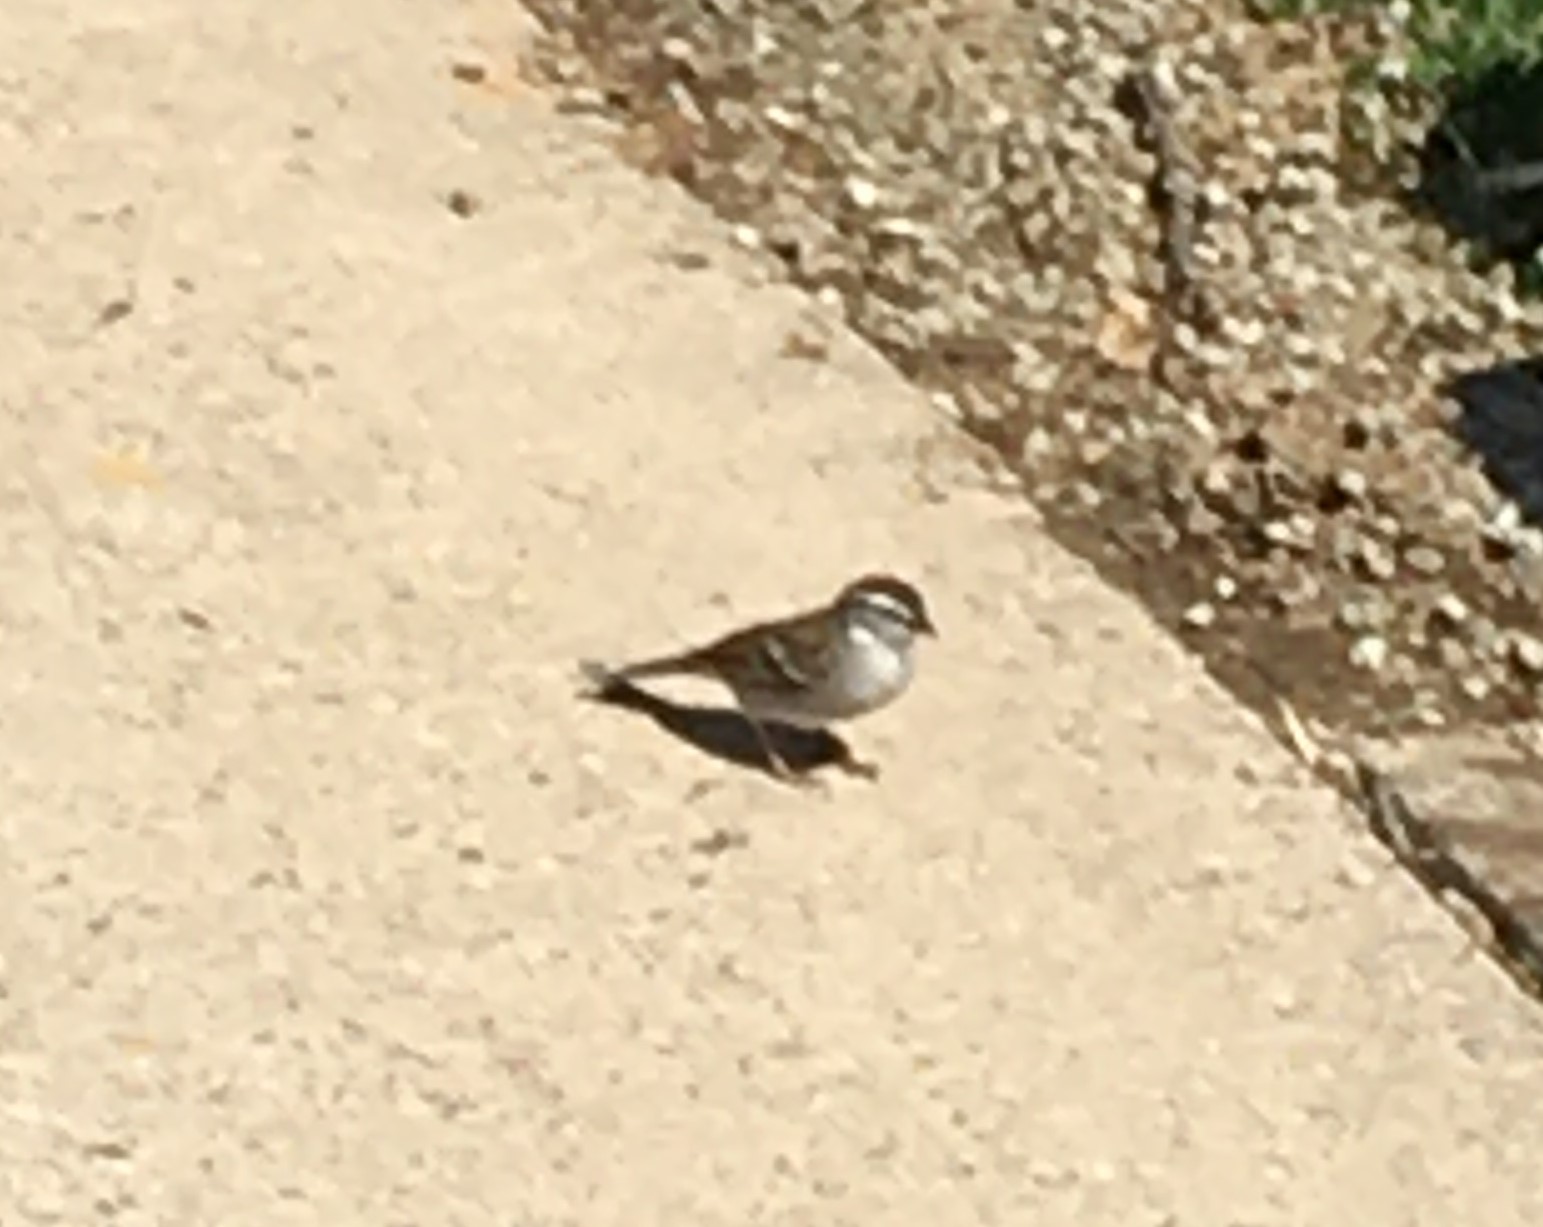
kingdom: Animalia
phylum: Chordata
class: Aves
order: Passeriformes
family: Passerellidae
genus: Spizella
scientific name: Spizella passerina
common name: Chipping sparrow
